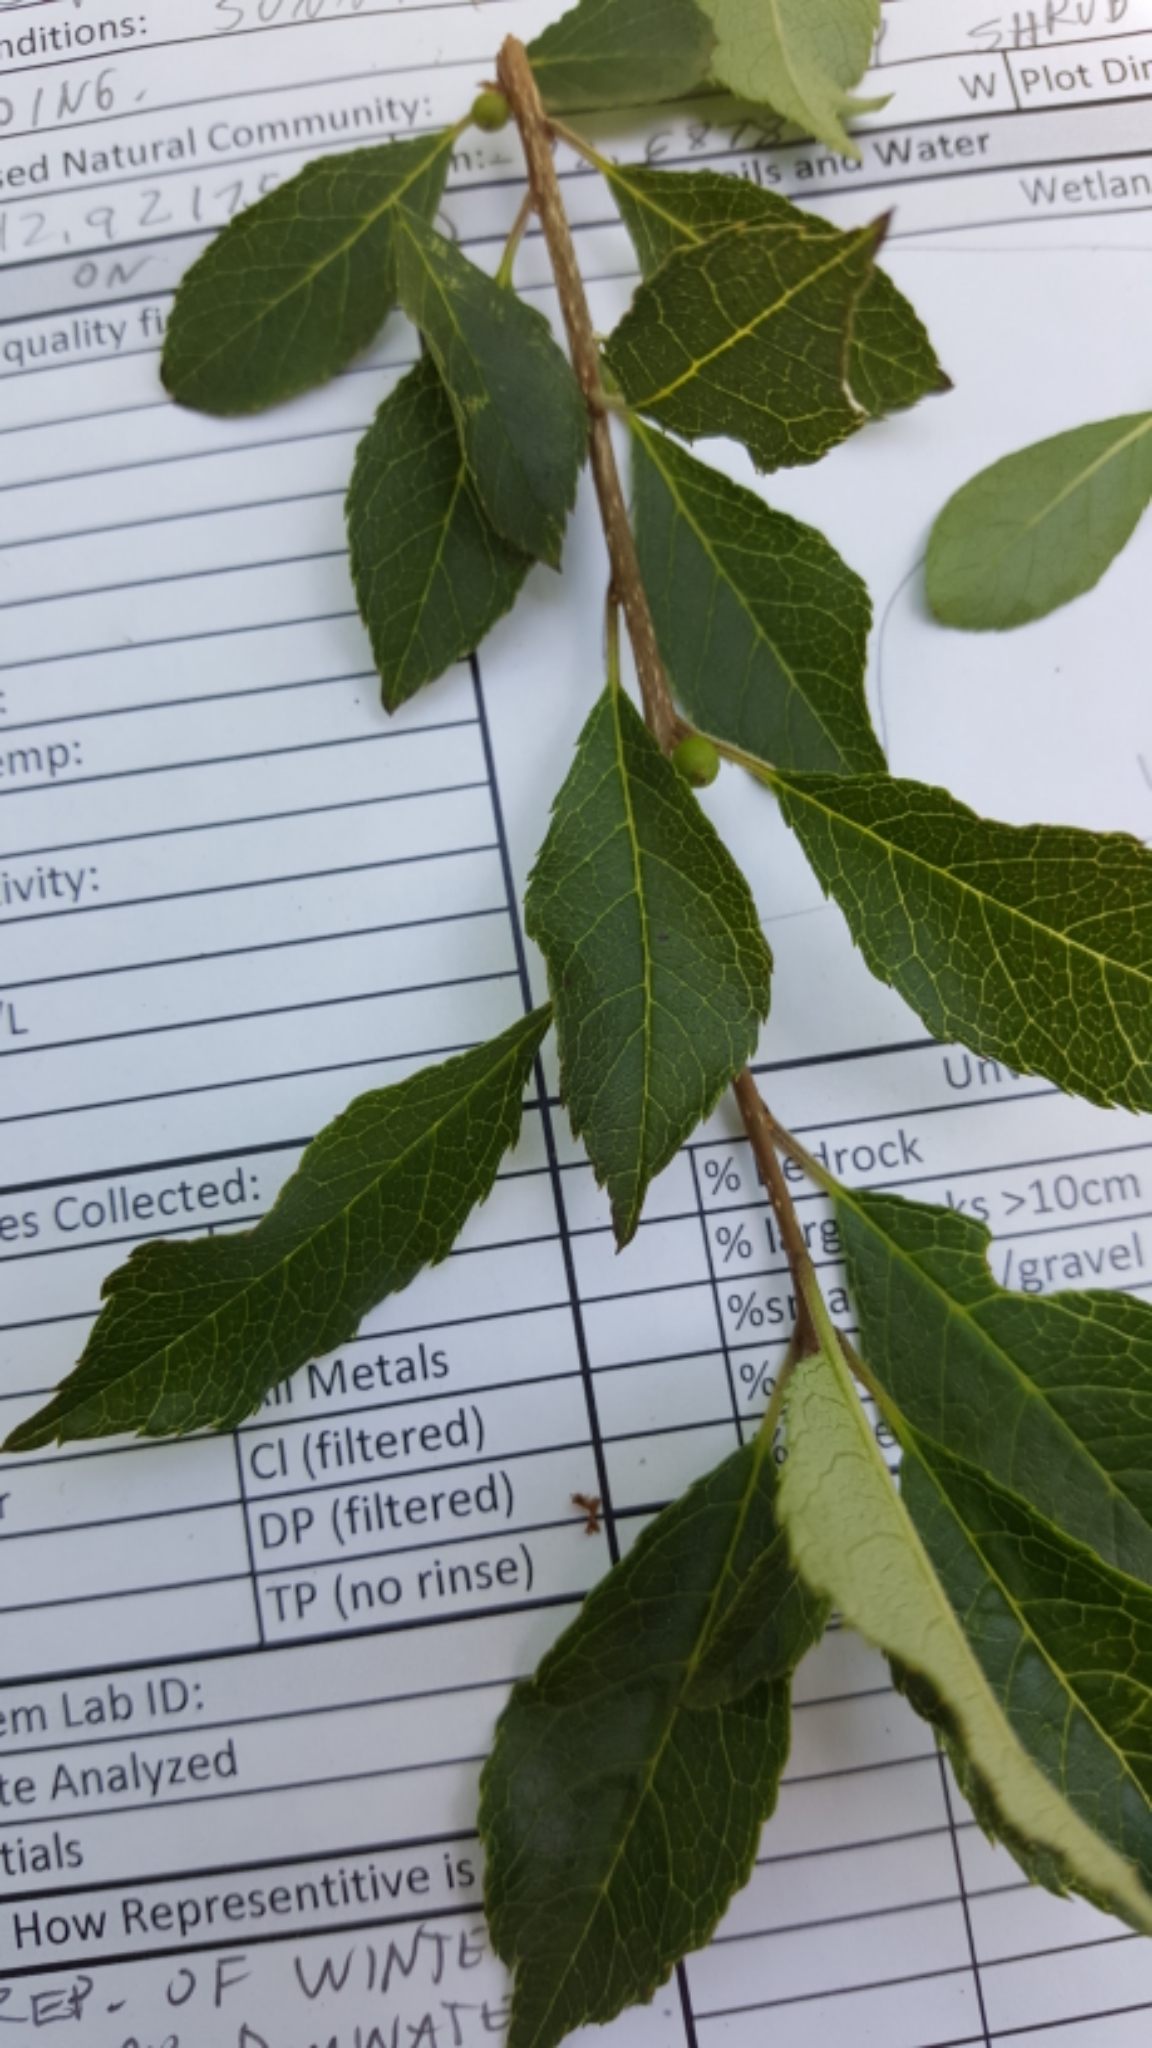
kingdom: Plantae
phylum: Tracheophyta
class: Magnoliopsida
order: Aquifoliales
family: Aquifoliaceae
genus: Ilex
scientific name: Ilex verticillata
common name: Virginia winterberry
